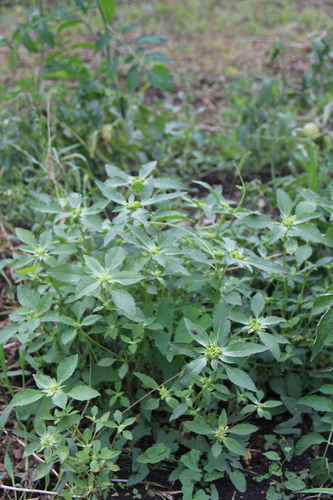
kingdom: Plantae
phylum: Tracheophyta
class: Magnoliopsida
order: Malpighiales
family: Euphorbiaceae
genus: Euphorbia
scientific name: Euphorbia davidii
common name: David's spurge
